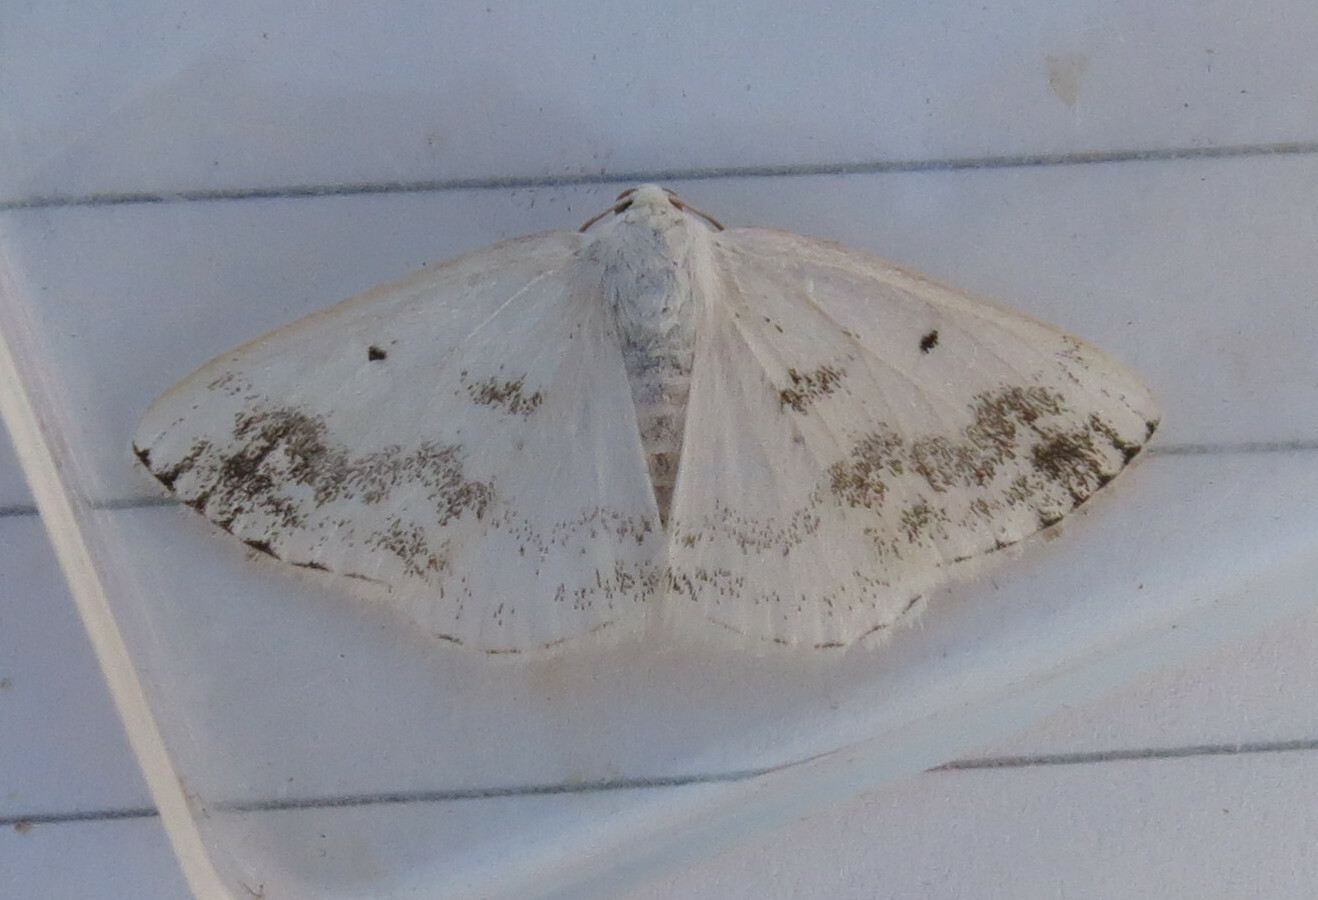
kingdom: Animalia
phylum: Arthropoda
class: Insecta
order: Lepidoptera
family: Geometridae
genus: Lomographa
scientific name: Lomographa temerata
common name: Clouded silver
